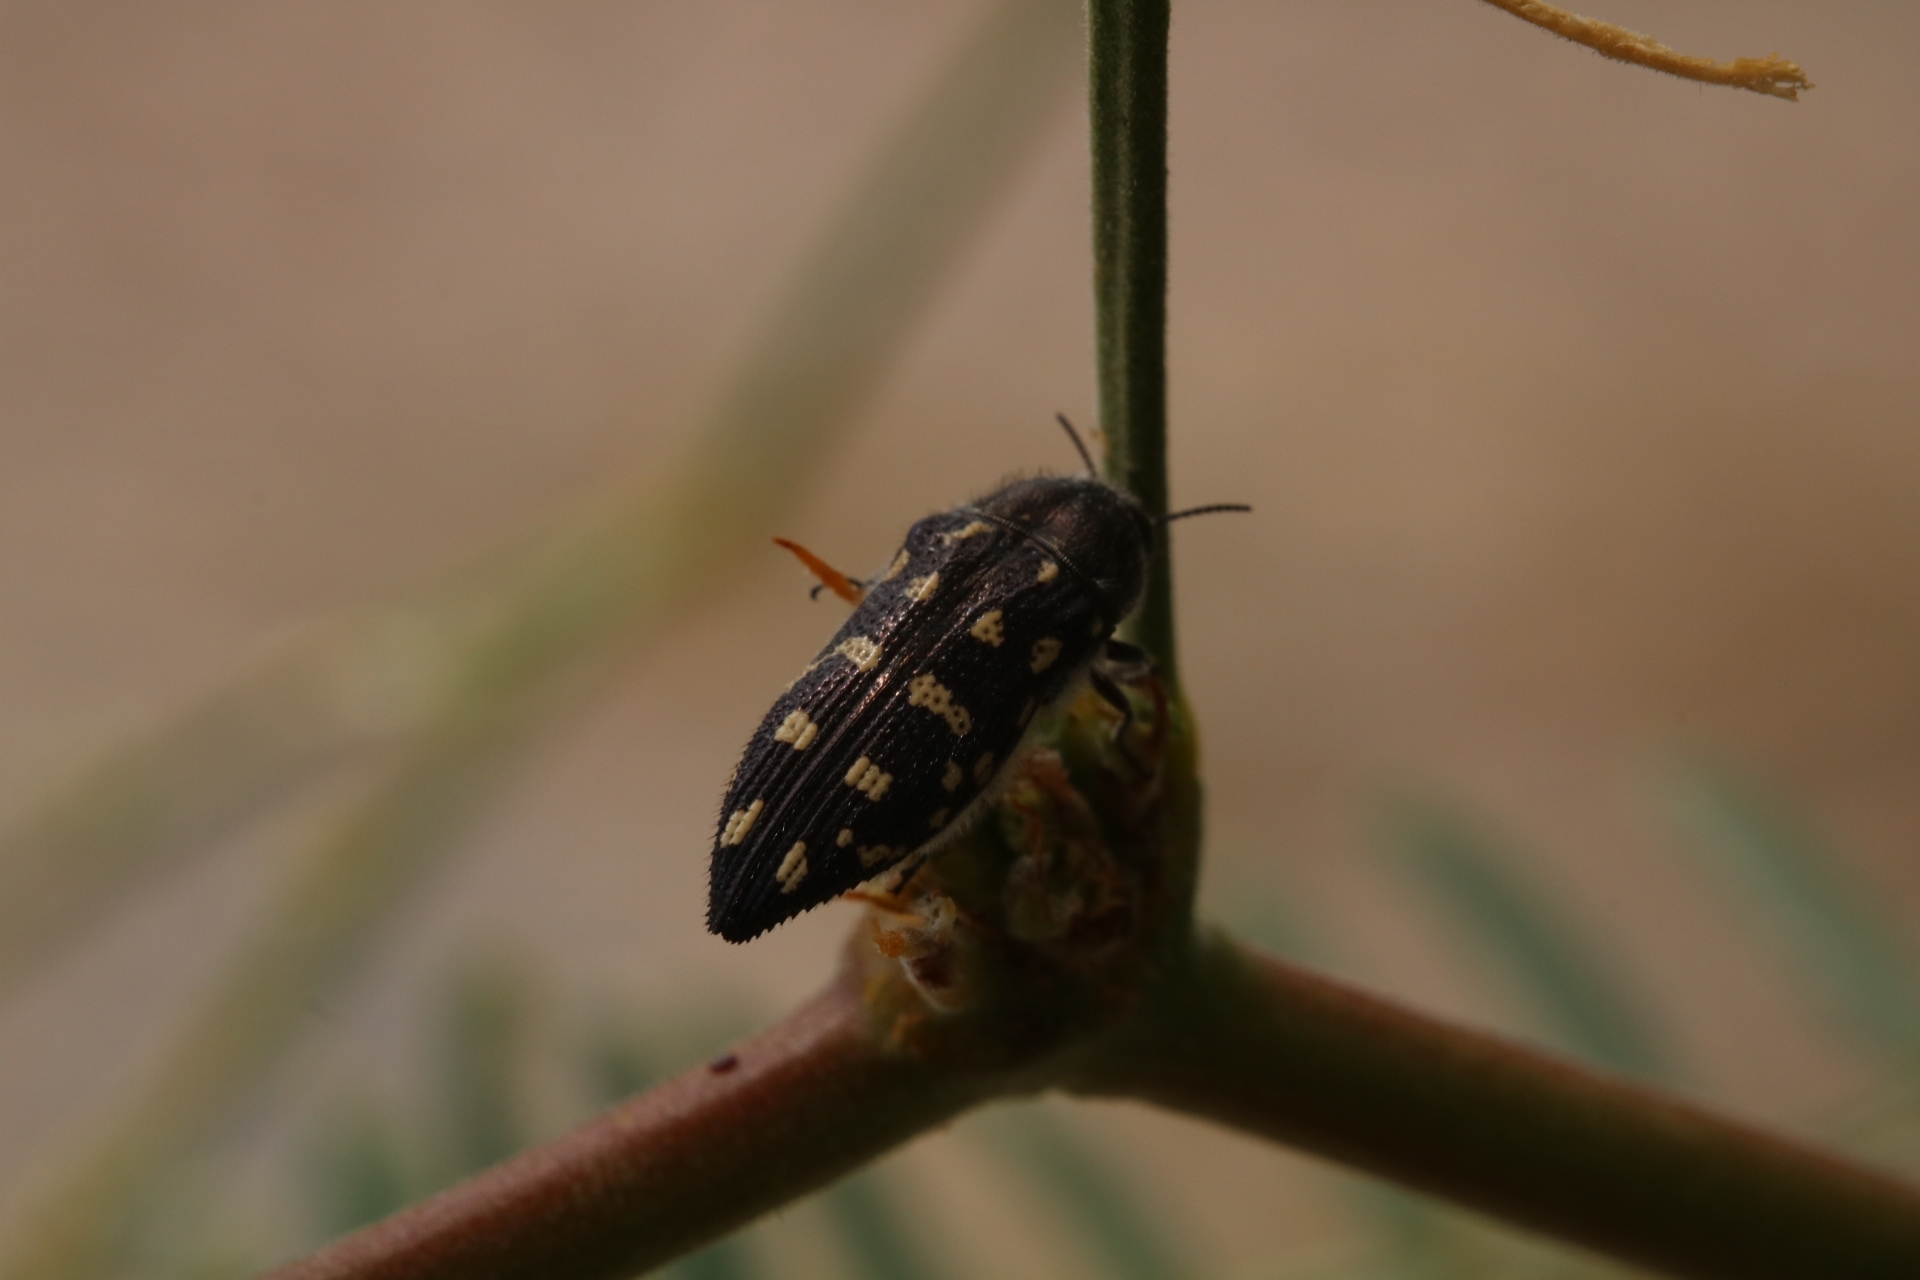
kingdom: Animalia
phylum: Arthropoda
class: Insecta
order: Coleoptera
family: Buprestidae
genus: Acmaeodera
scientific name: Acmaeodera delumbis
